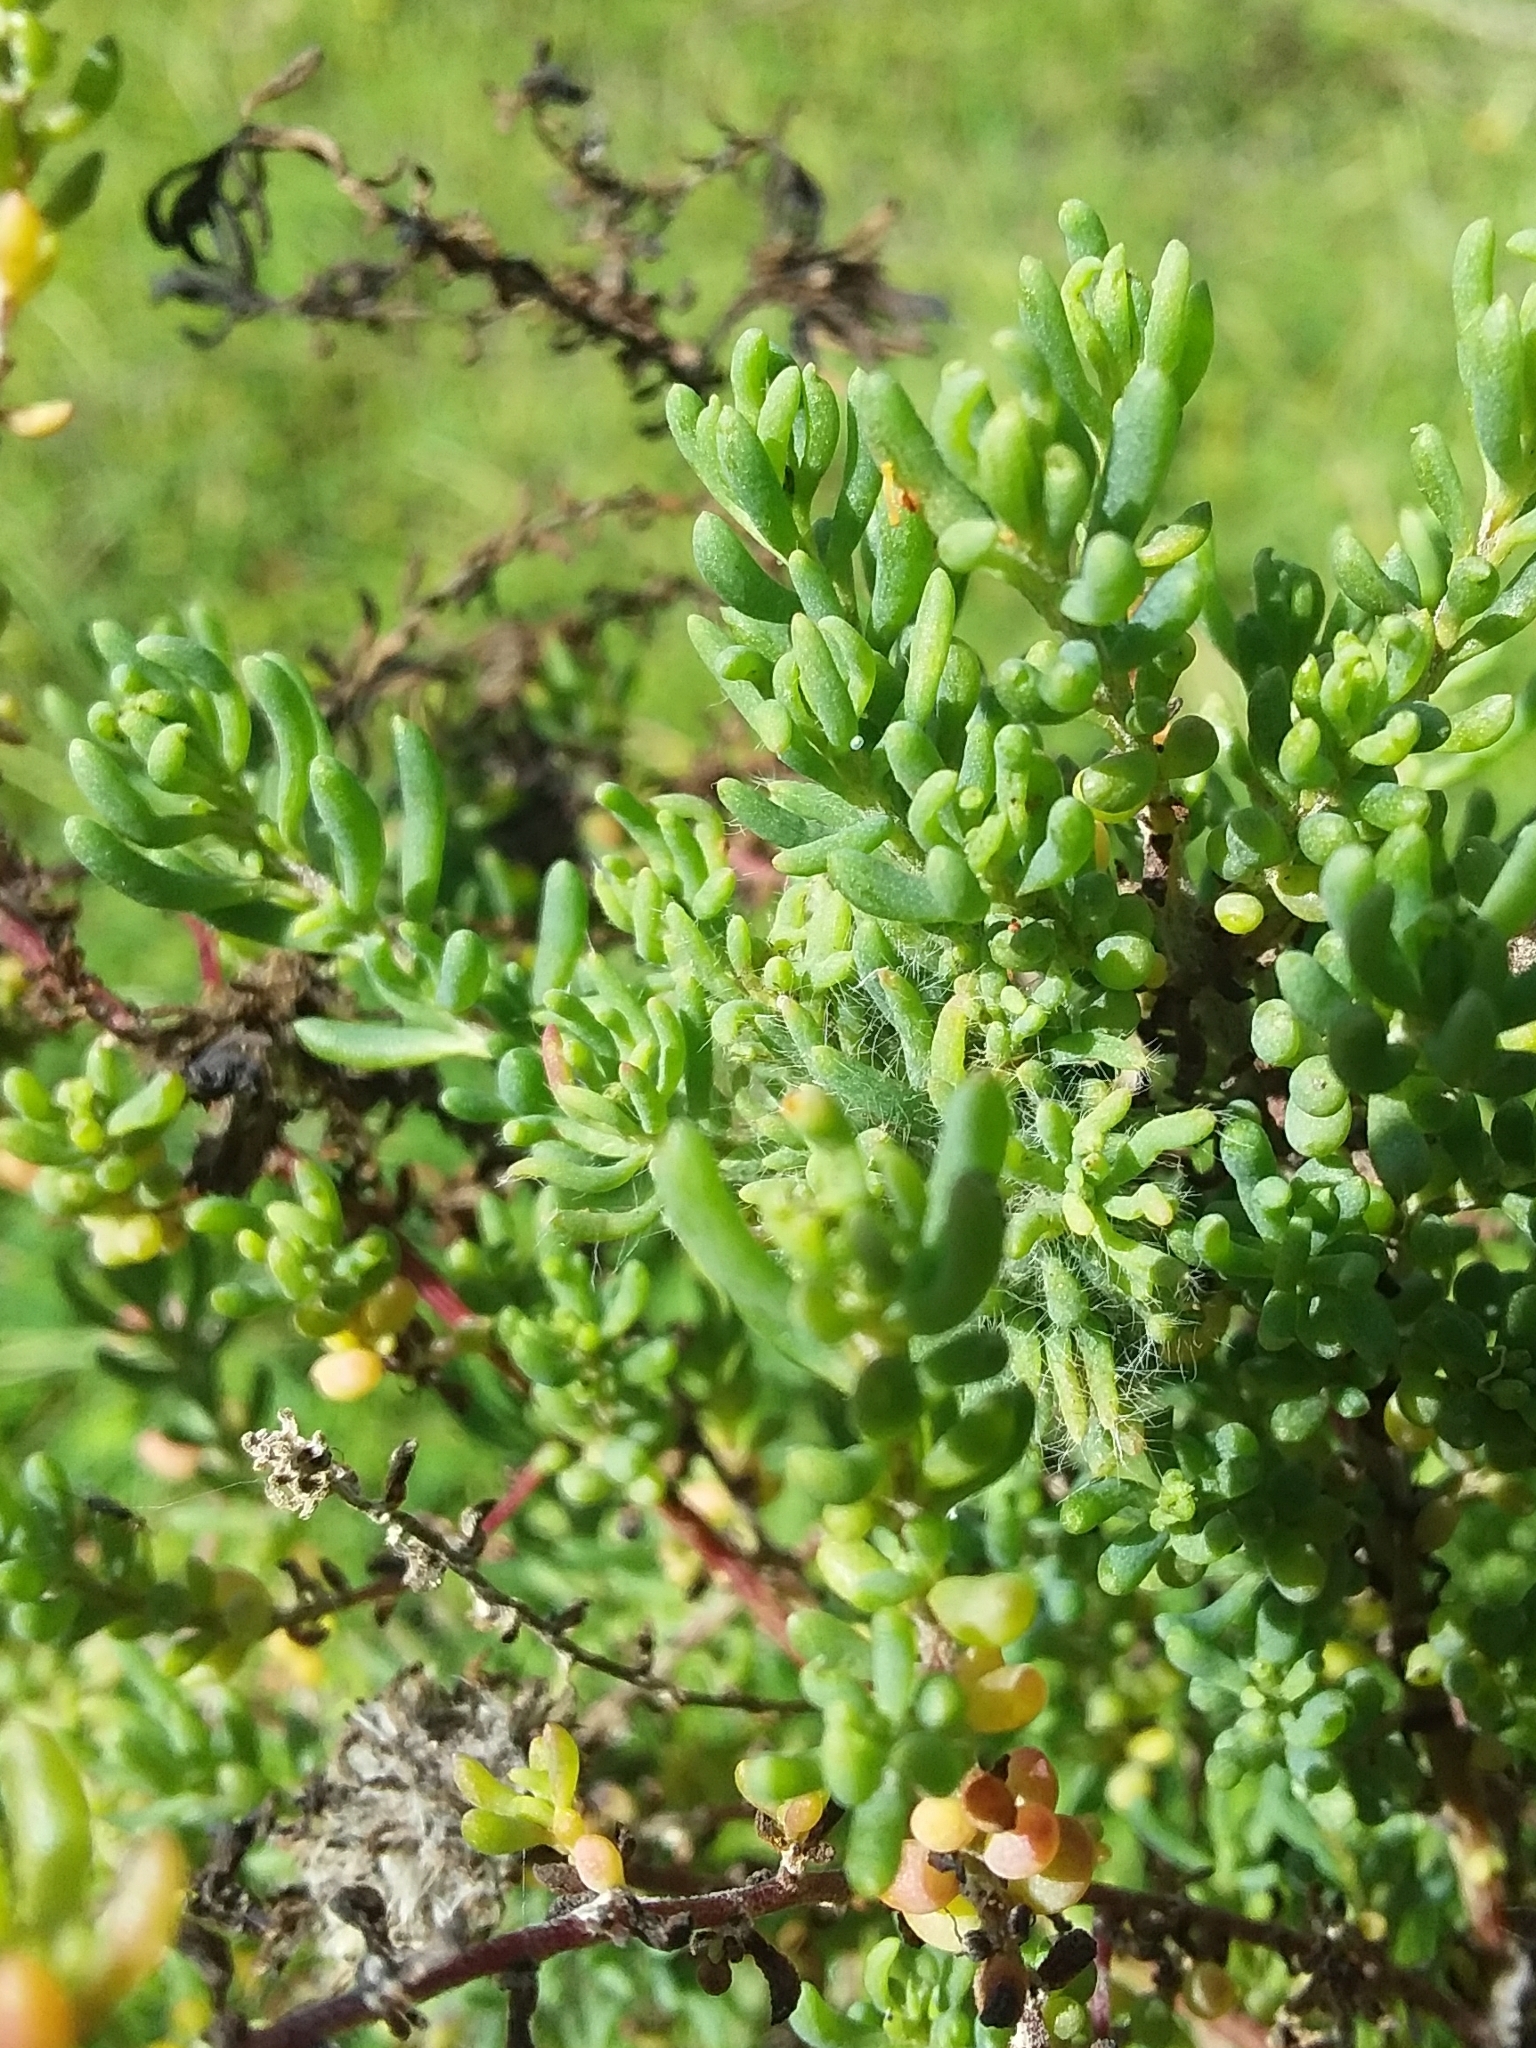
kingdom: Plantae
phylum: Tracheophyta
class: Magnoliopsida
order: Caryophyllales
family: Amaranthaceae
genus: Maireana
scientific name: Maireana brevifolia
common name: Eastern cottonbush
